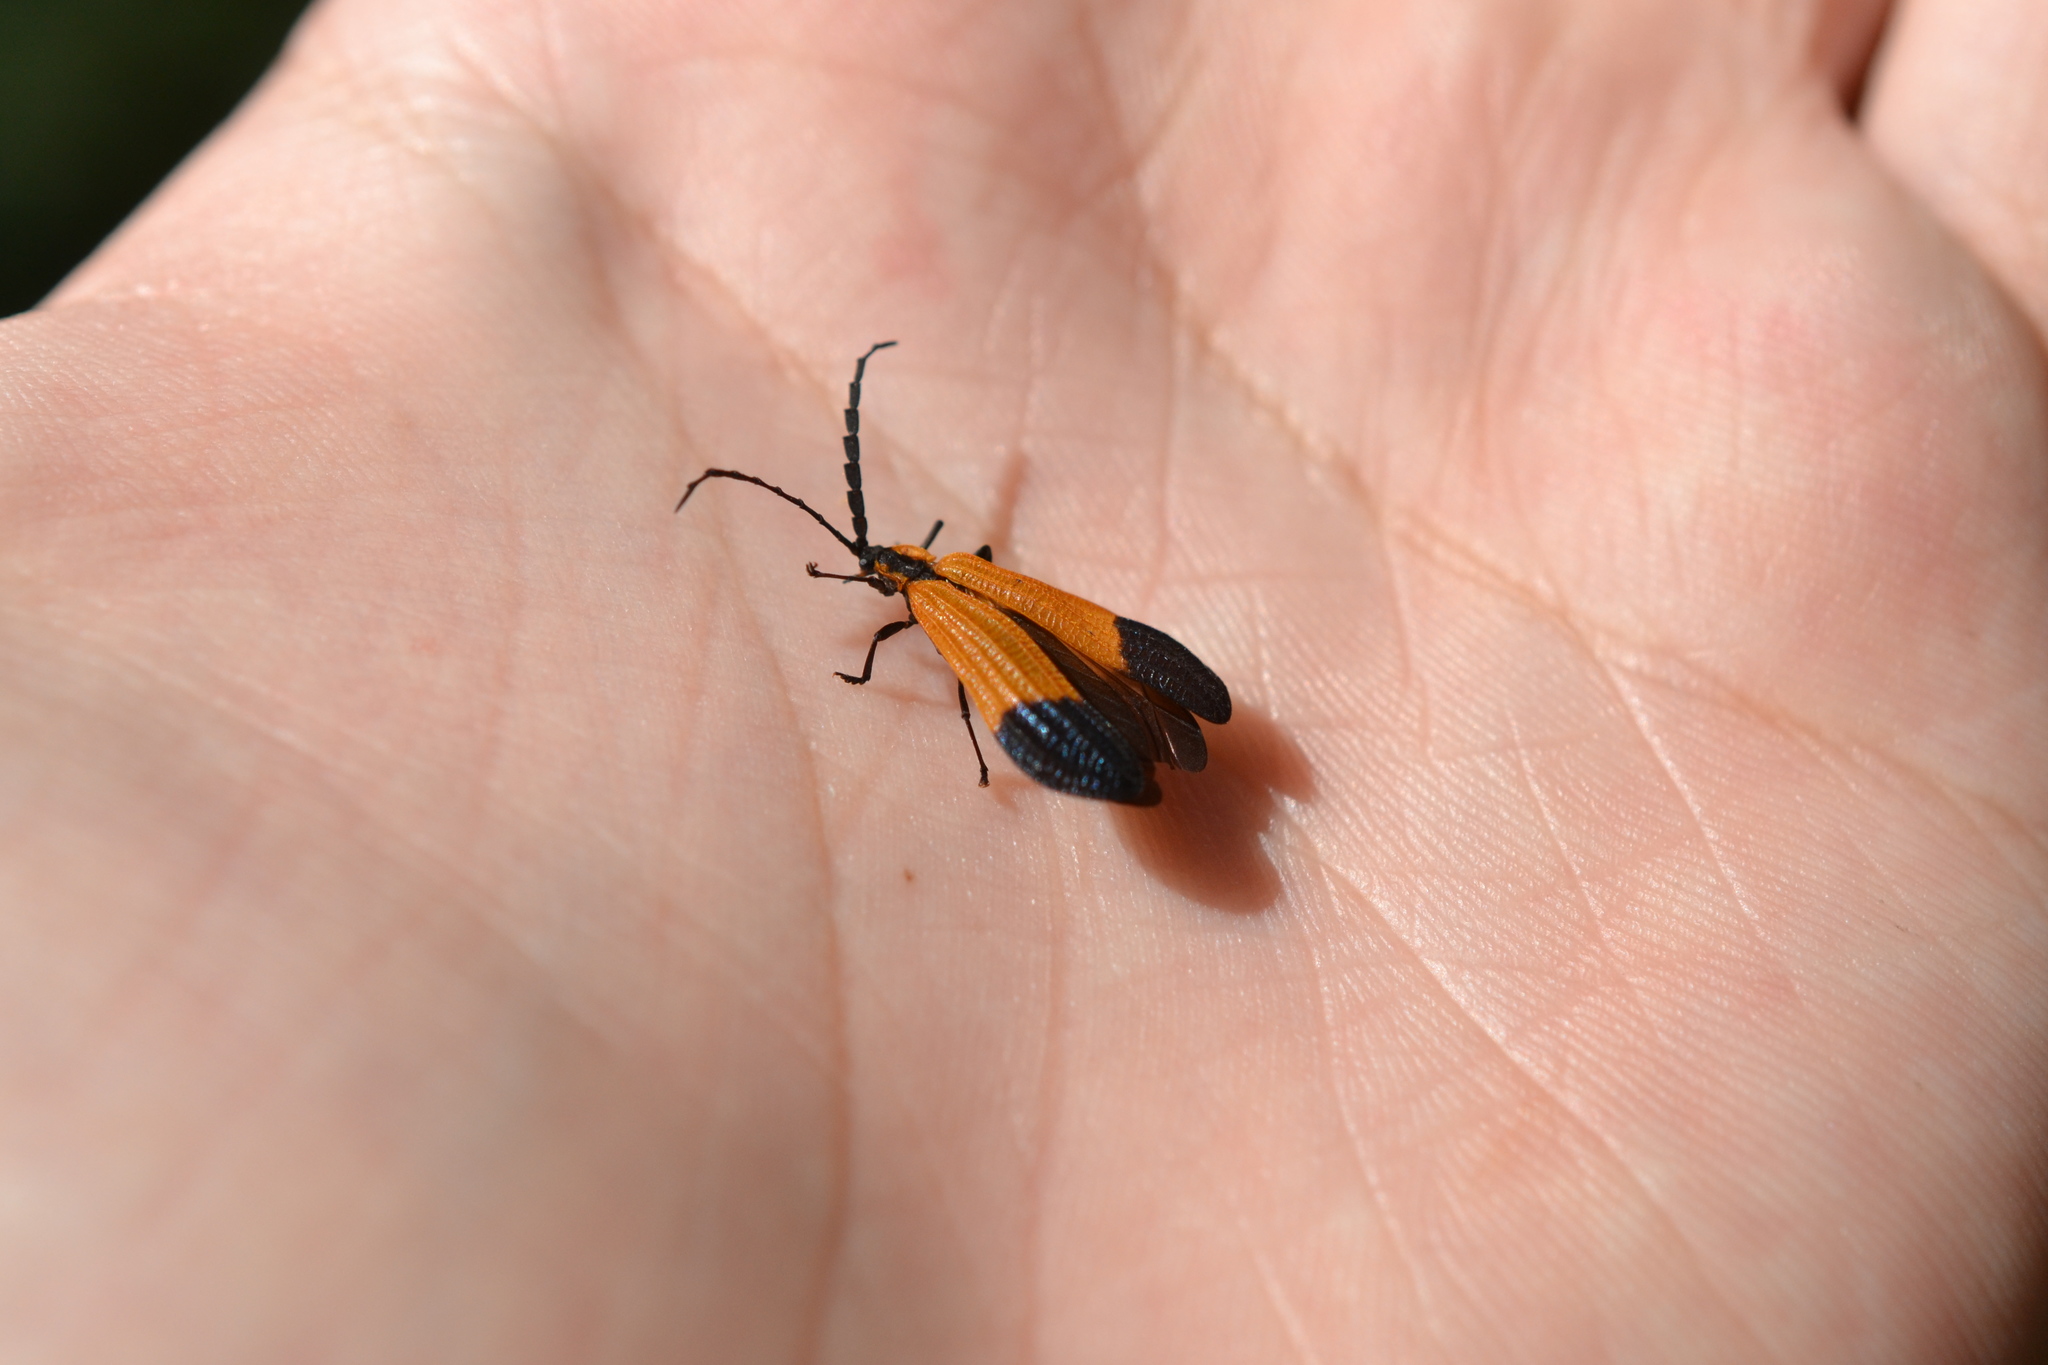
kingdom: Animalia
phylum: Arthropoda
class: Insecta
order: Coleoptera
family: Lycidae
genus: Calopteron
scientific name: Calopteron terminale
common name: End band net-winged beetle
